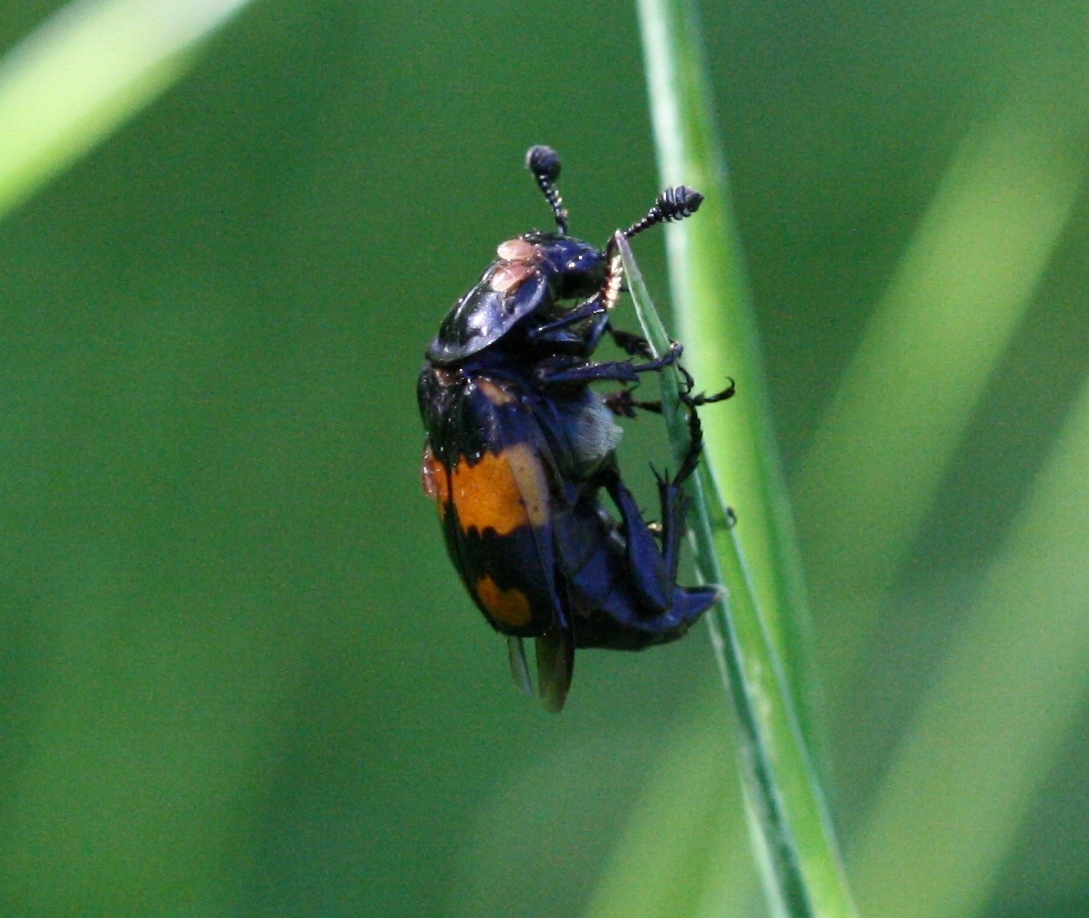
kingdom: Animalia
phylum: Arthropoda
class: Insecta
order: Coleoptera
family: Staphylinidae
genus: Nicrophorus
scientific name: Nicrophorus vespilloides
